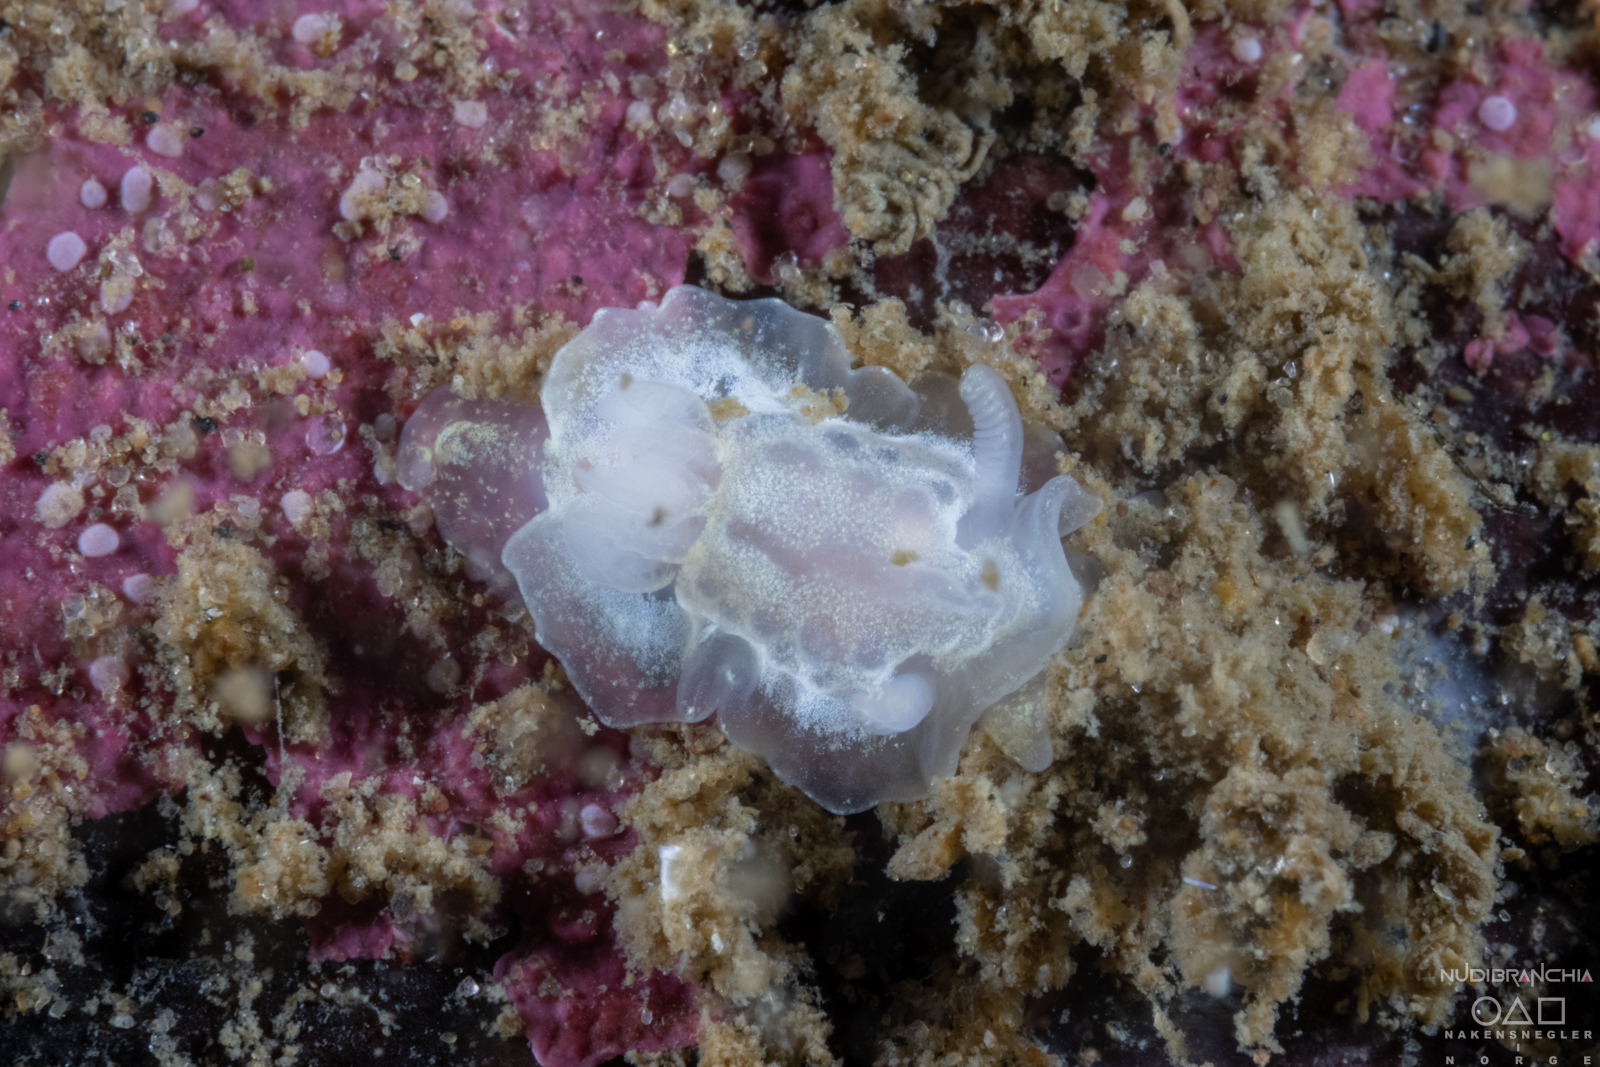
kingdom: Animalia
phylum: Mollusca
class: Gastropoda
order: Nudibranchia
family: Goniodorididae
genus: Okenia
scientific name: Okenia
